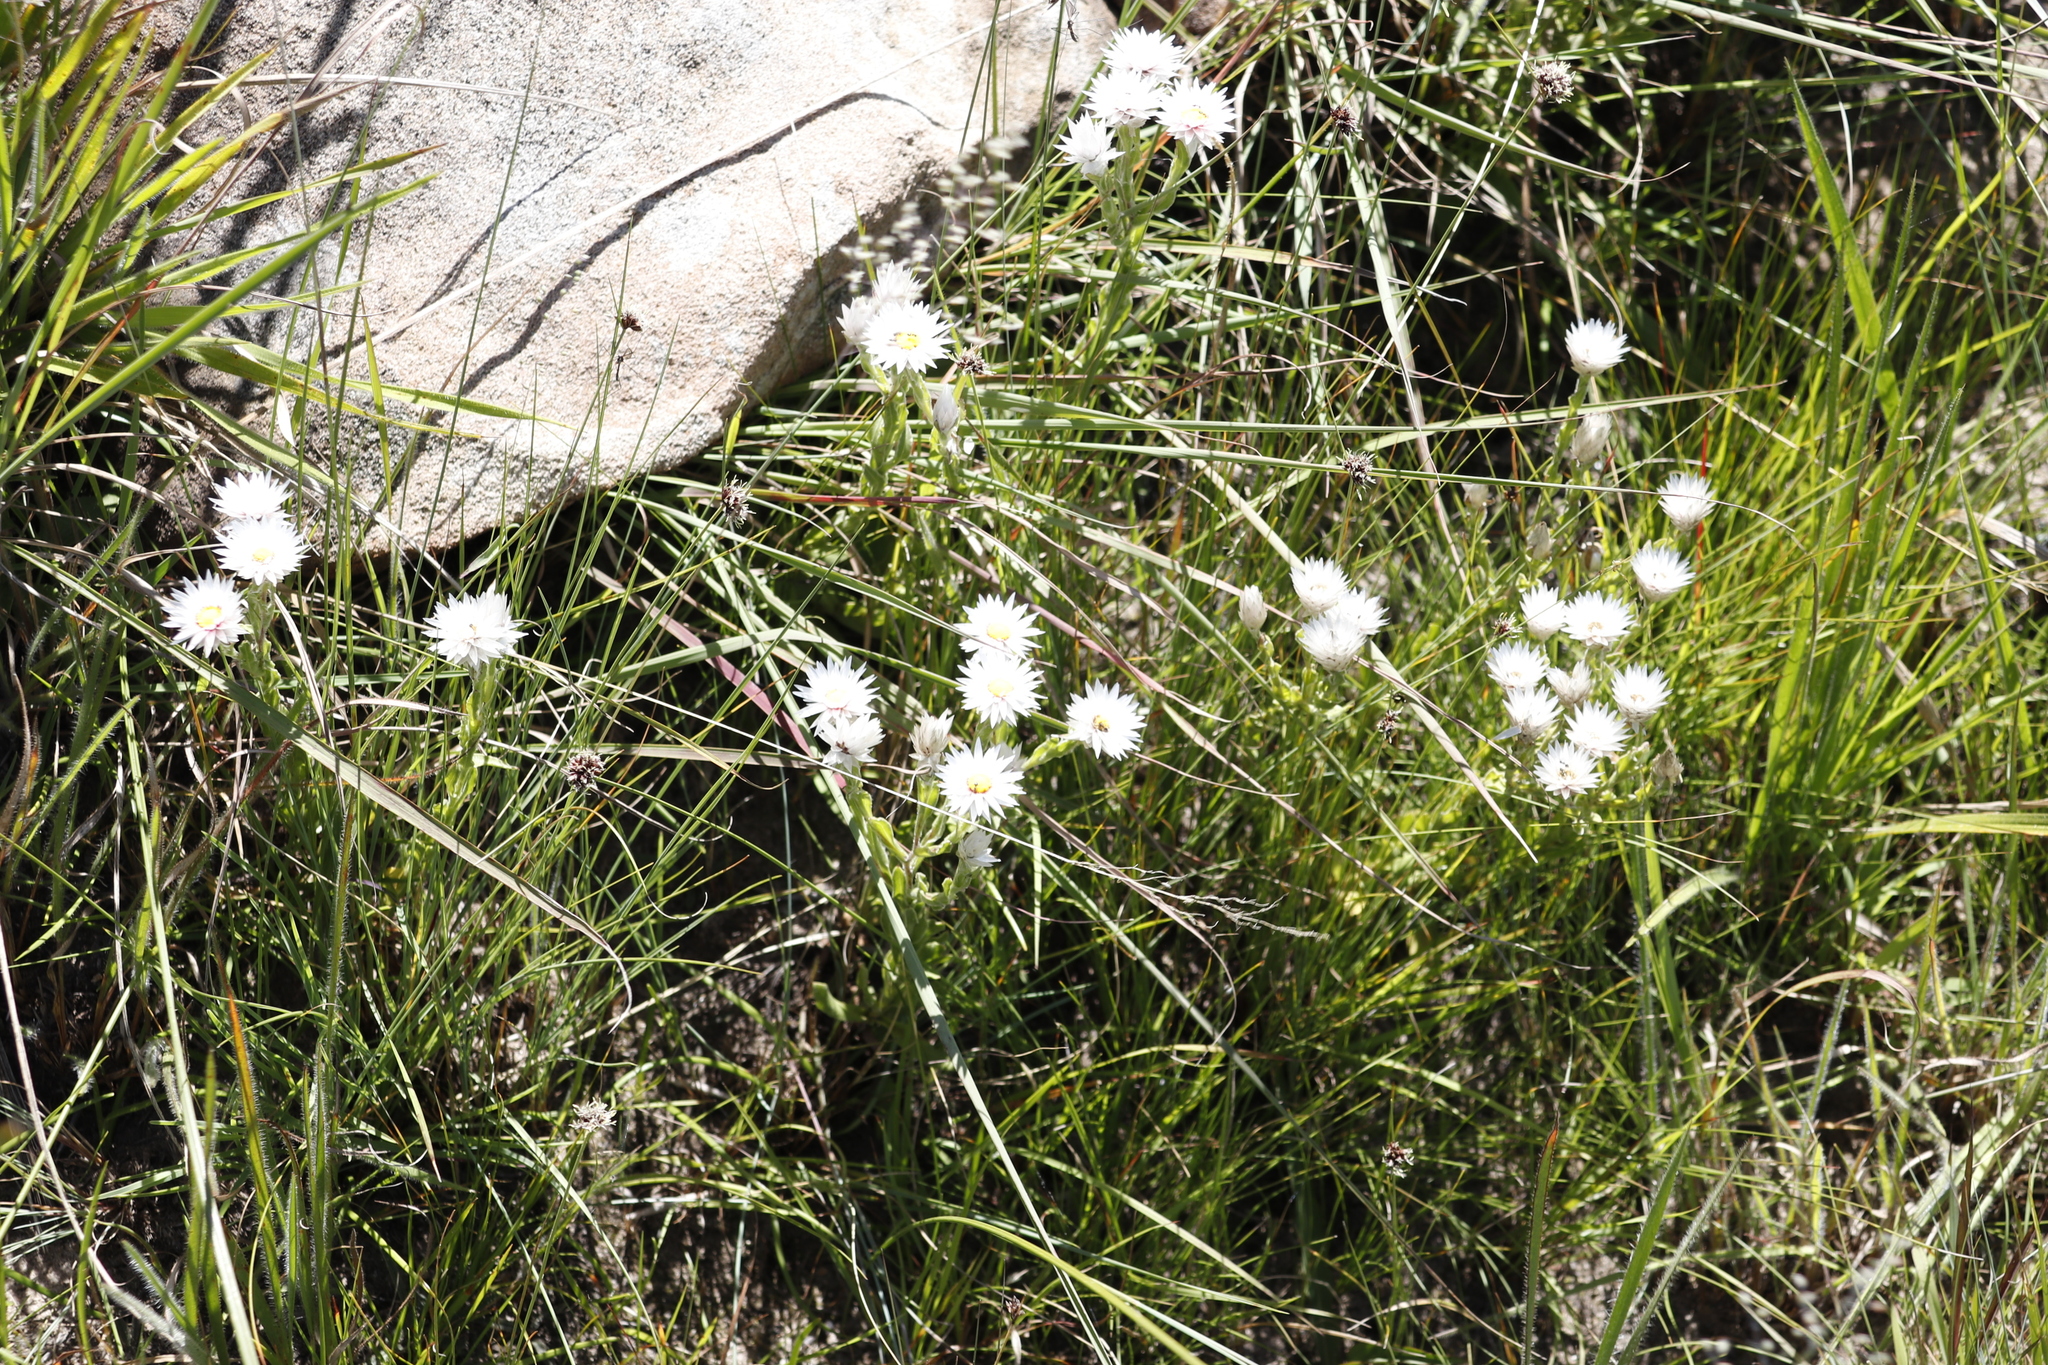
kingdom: Plantae
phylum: Tracheophyta
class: Magnoliopsida
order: Asterales
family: Asteraceae
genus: Helichrysum
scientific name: Helichrysum monticola
